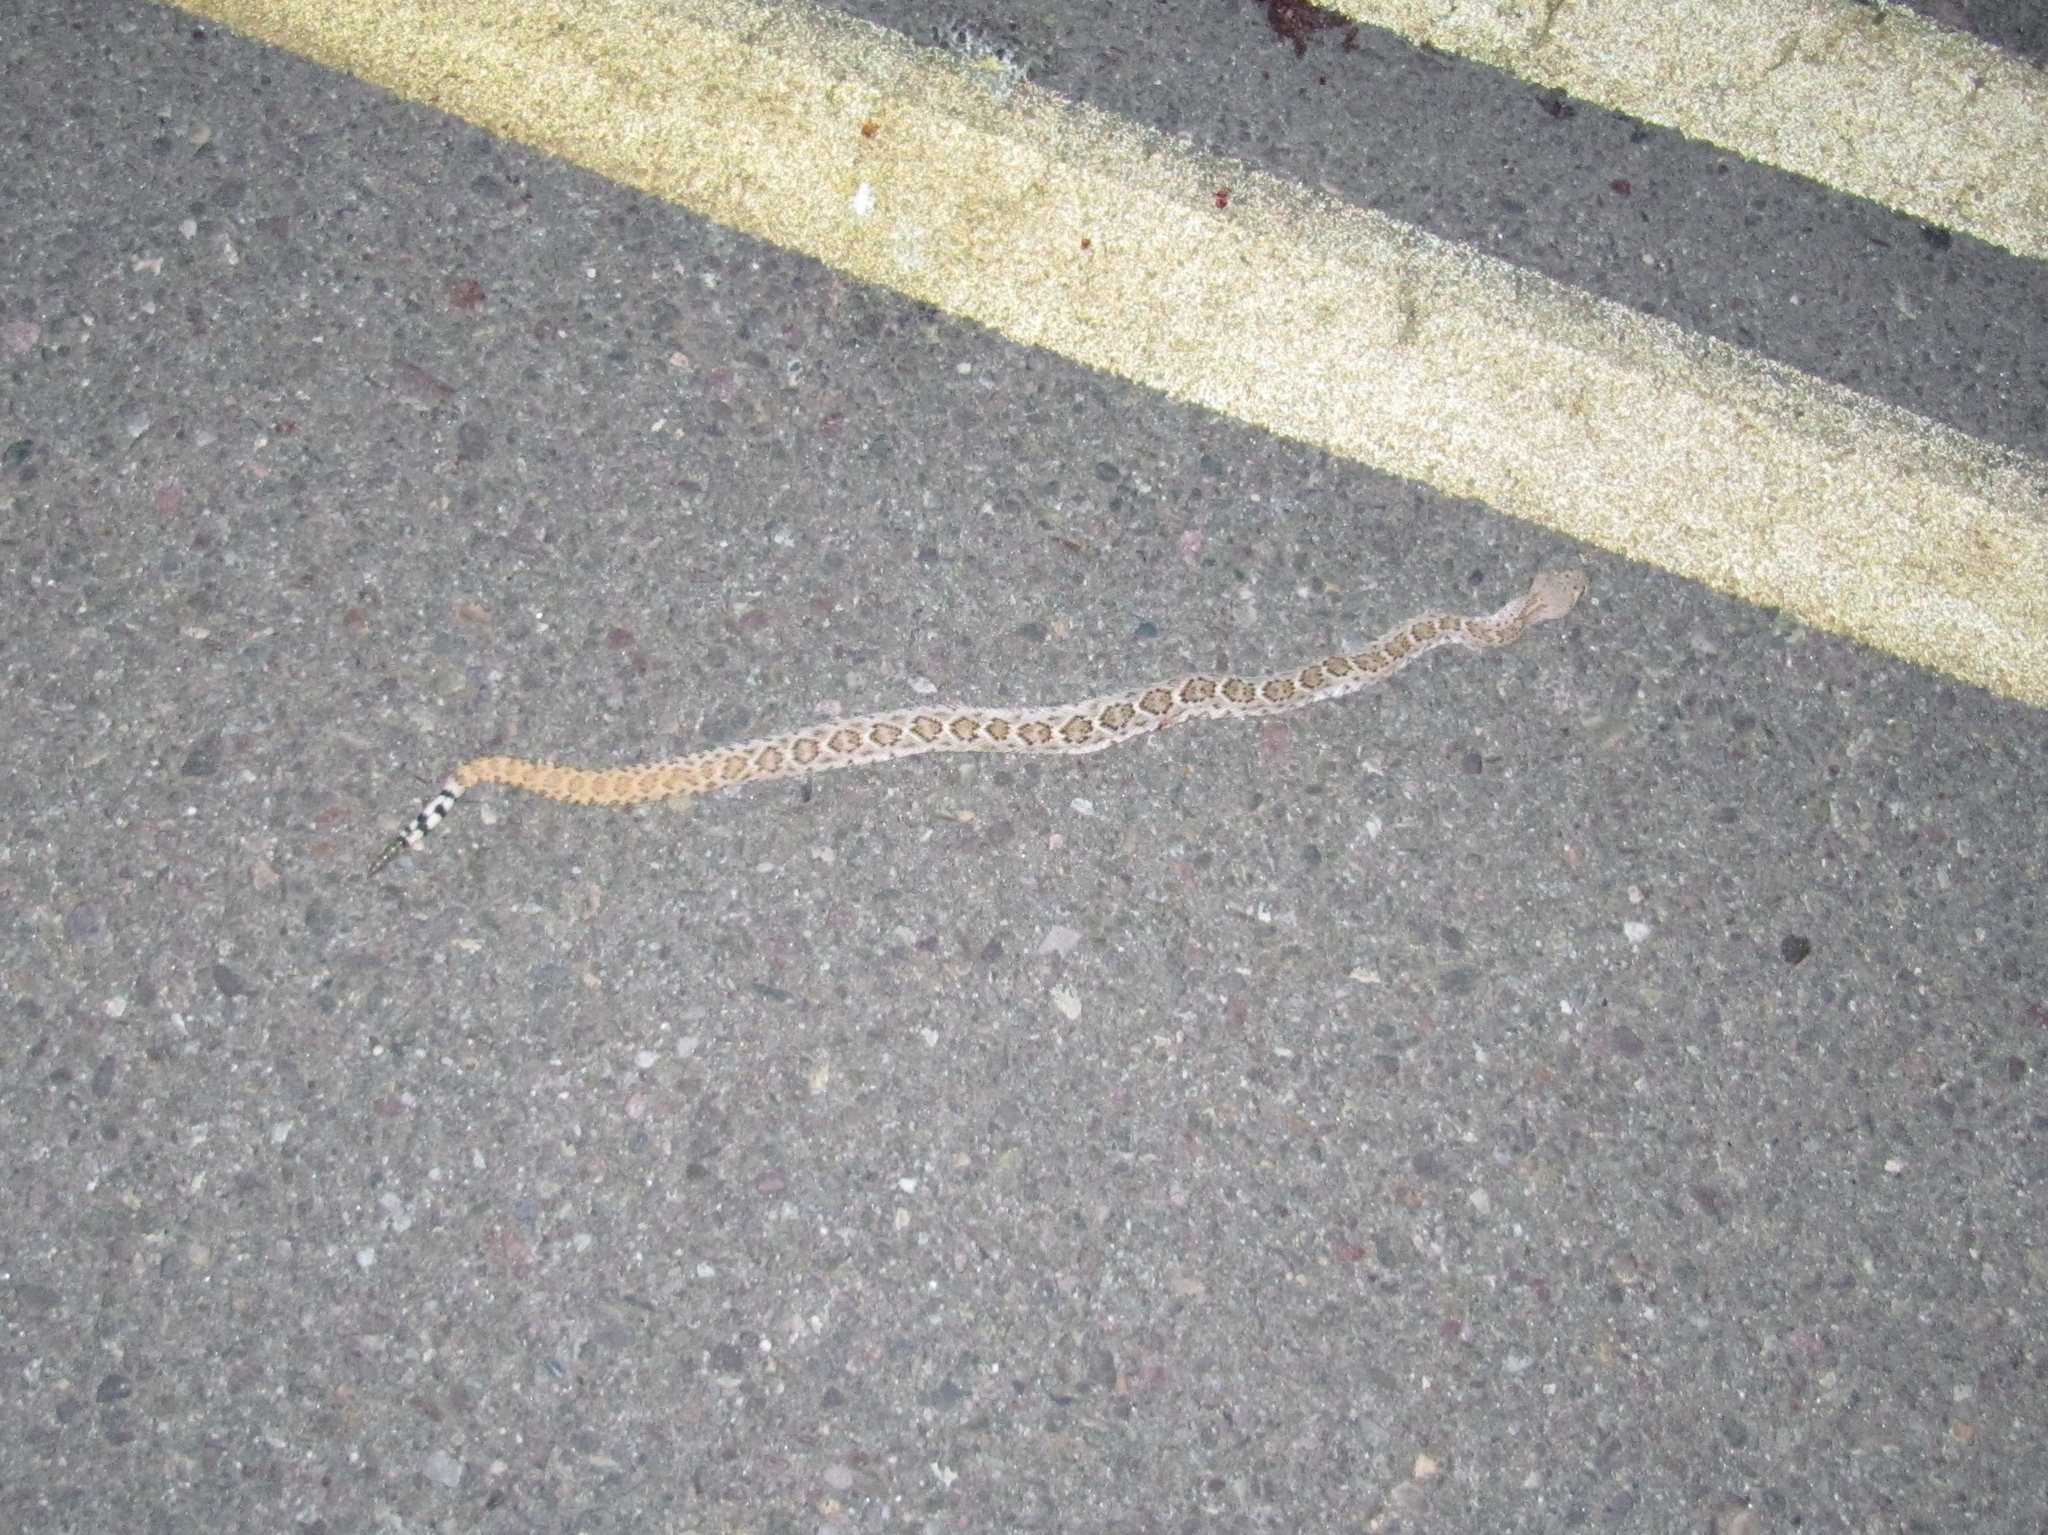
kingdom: Animalia
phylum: Chordata
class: Squamata
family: Viperidae
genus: Crotalus
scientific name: Crotalus atrox
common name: Western diamond-backed rattlesnake
